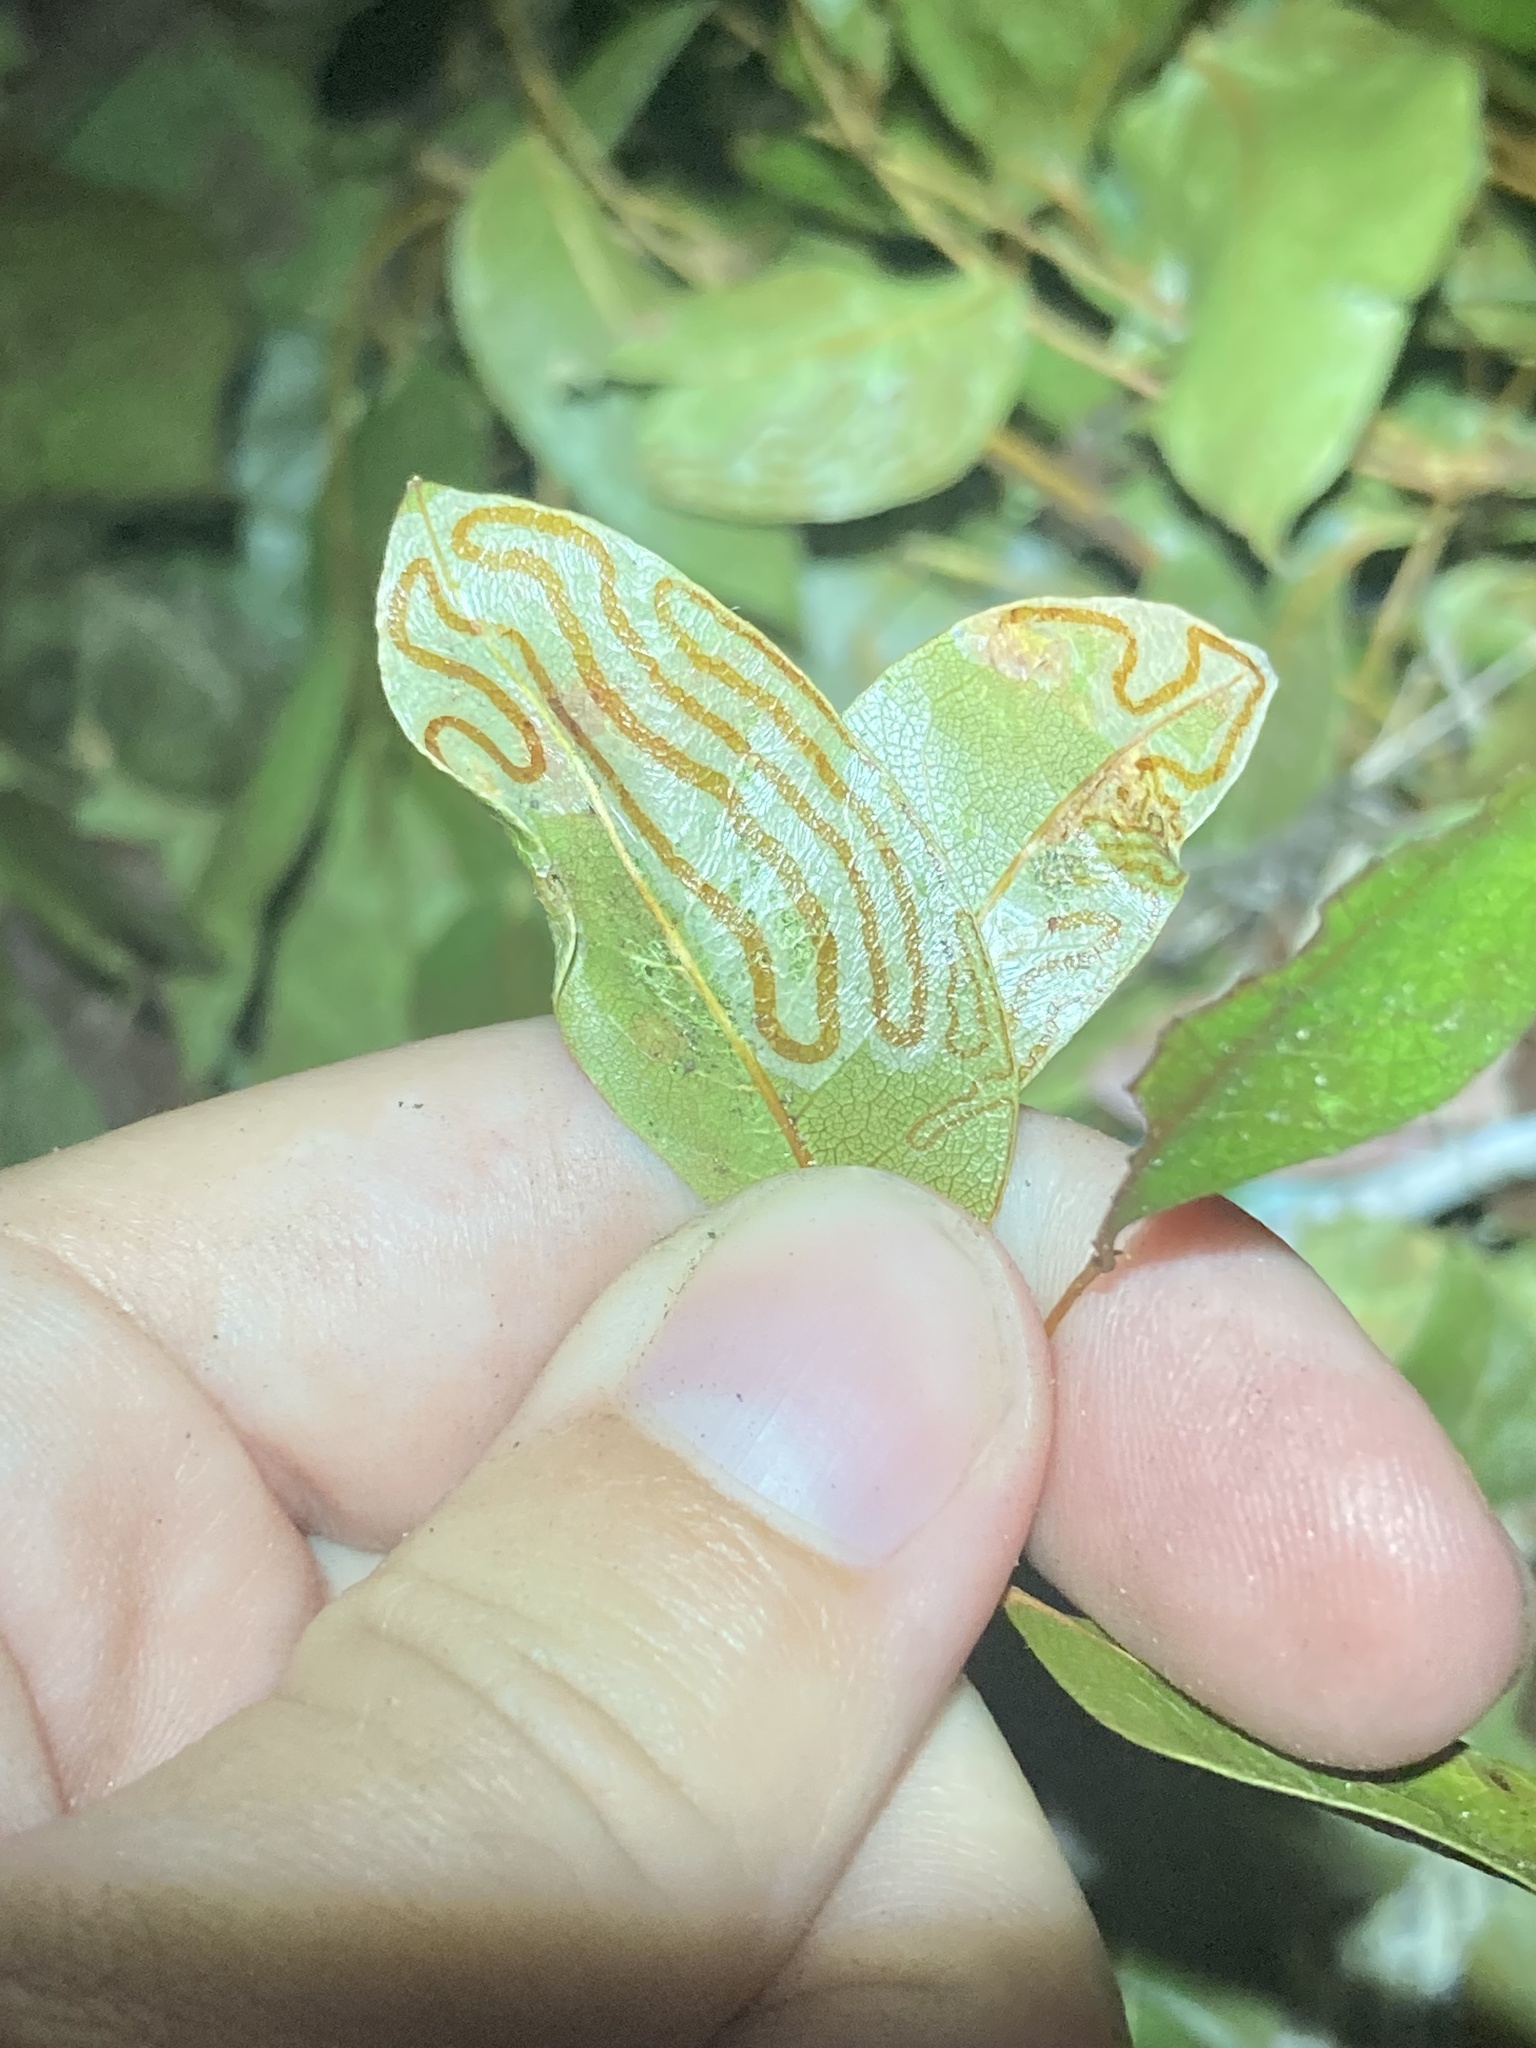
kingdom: Animalia
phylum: Arthropoda
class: Insecta
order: Lepidoptera
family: Gracillariidae
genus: Phyllocnistis
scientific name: Phyllocnistis meliacella
